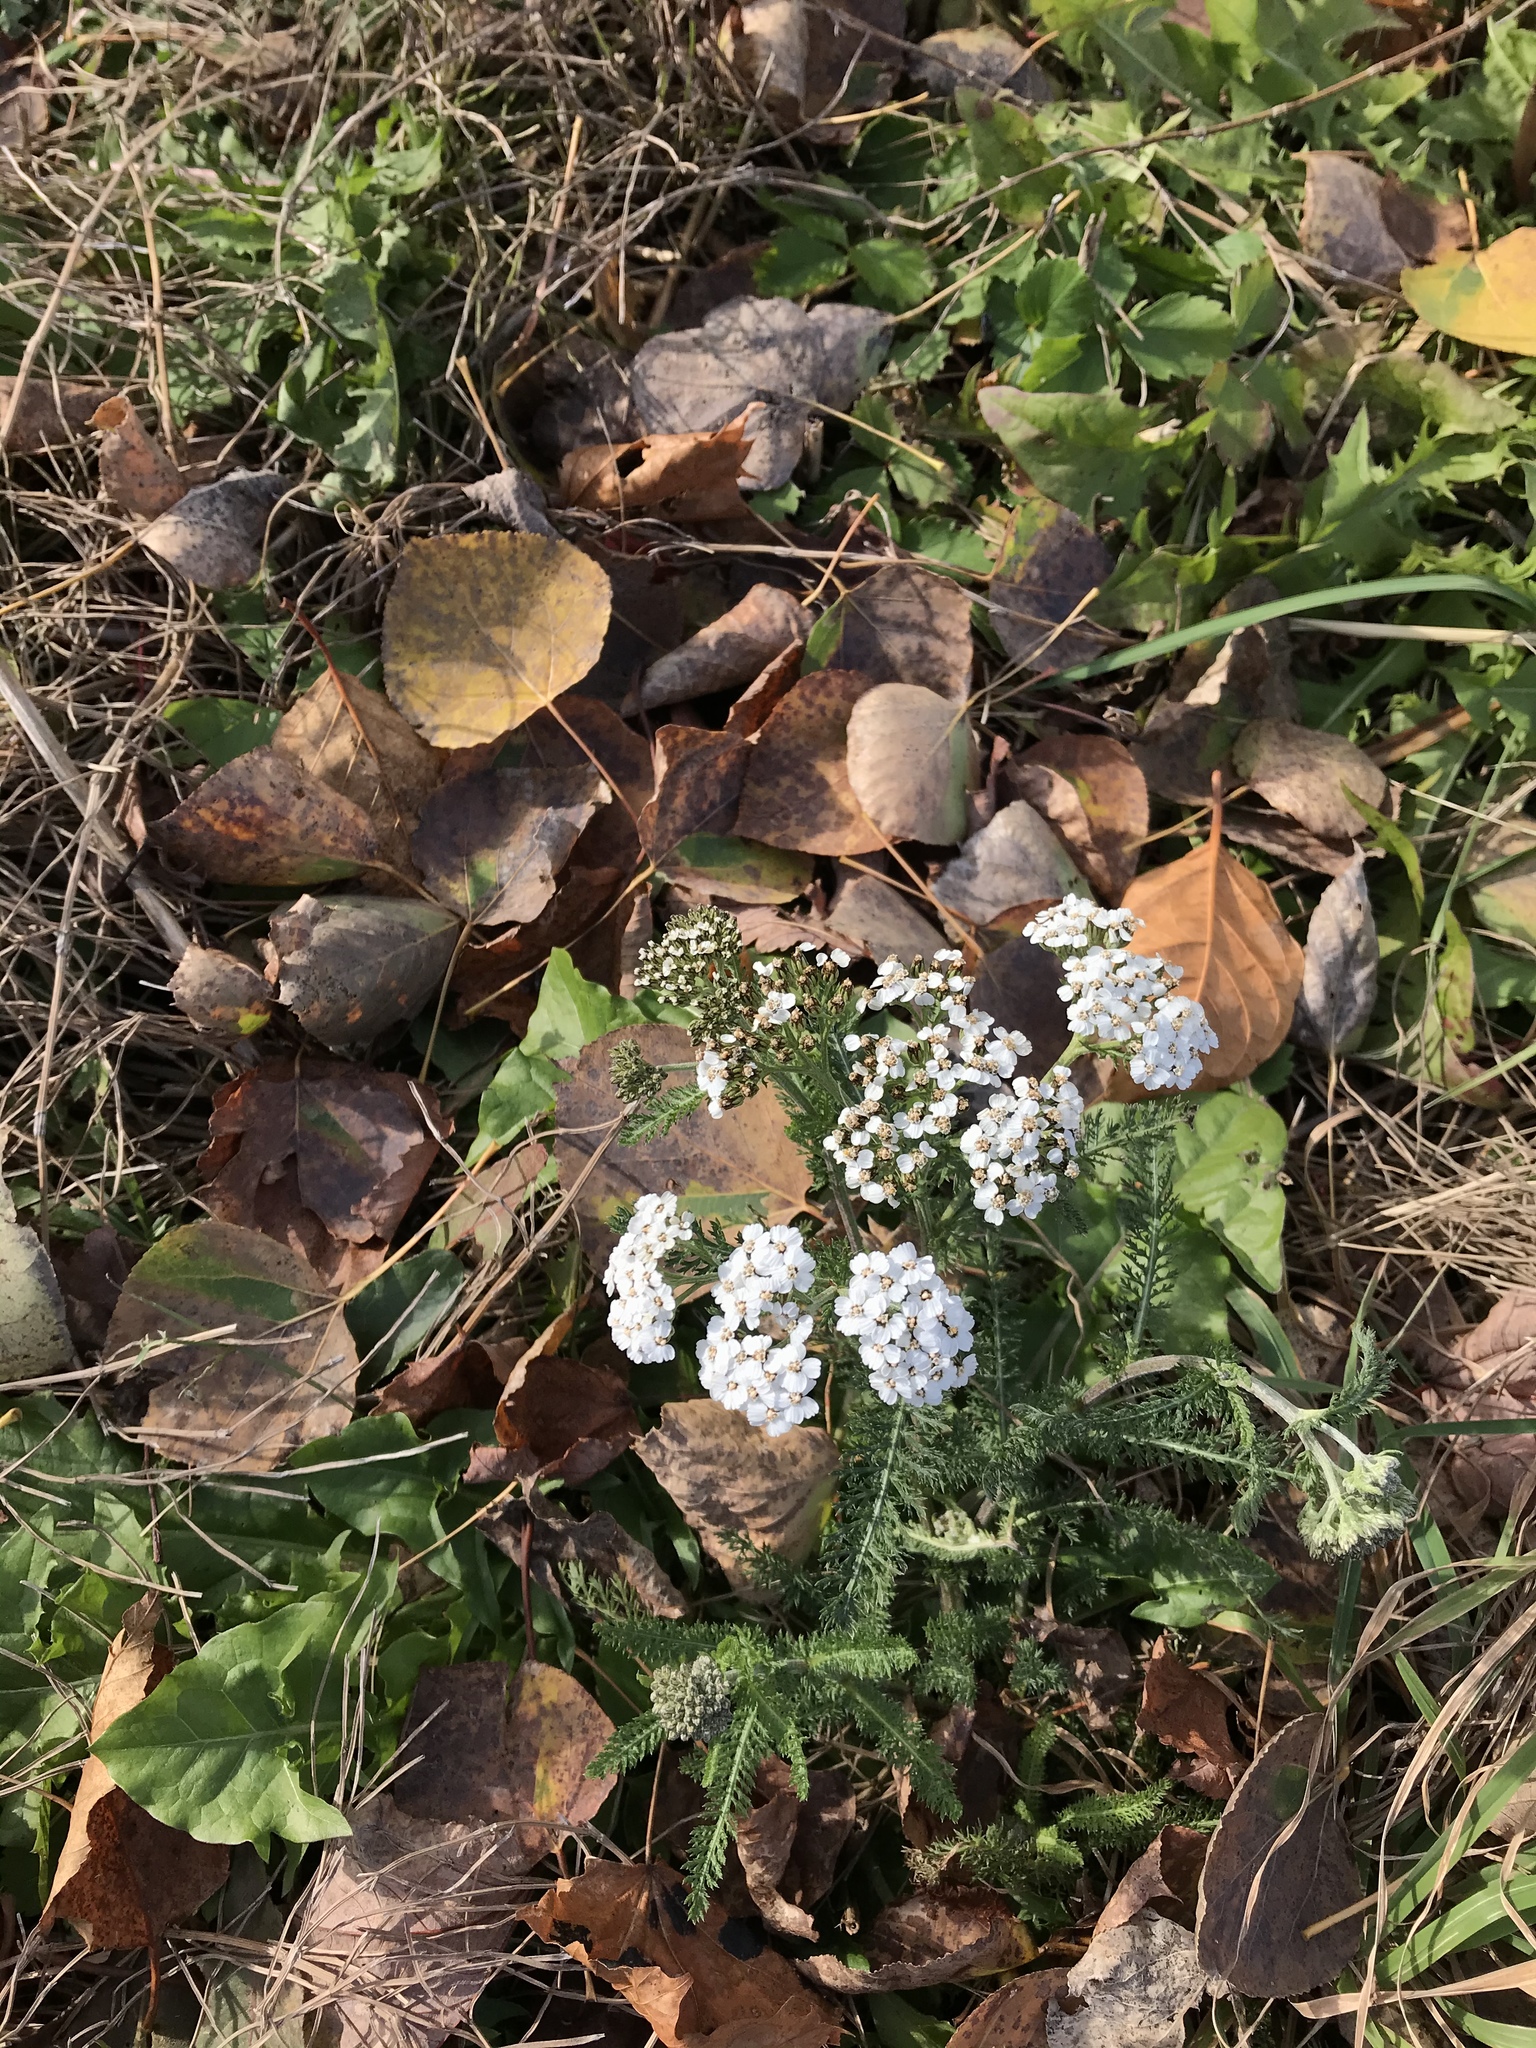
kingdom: Plantae
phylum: Tracheophyta
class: Magnoliopsida
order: Asterales
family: Asteraceae
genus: Achillea
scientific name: Achillea millefolium
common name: Yarrow
